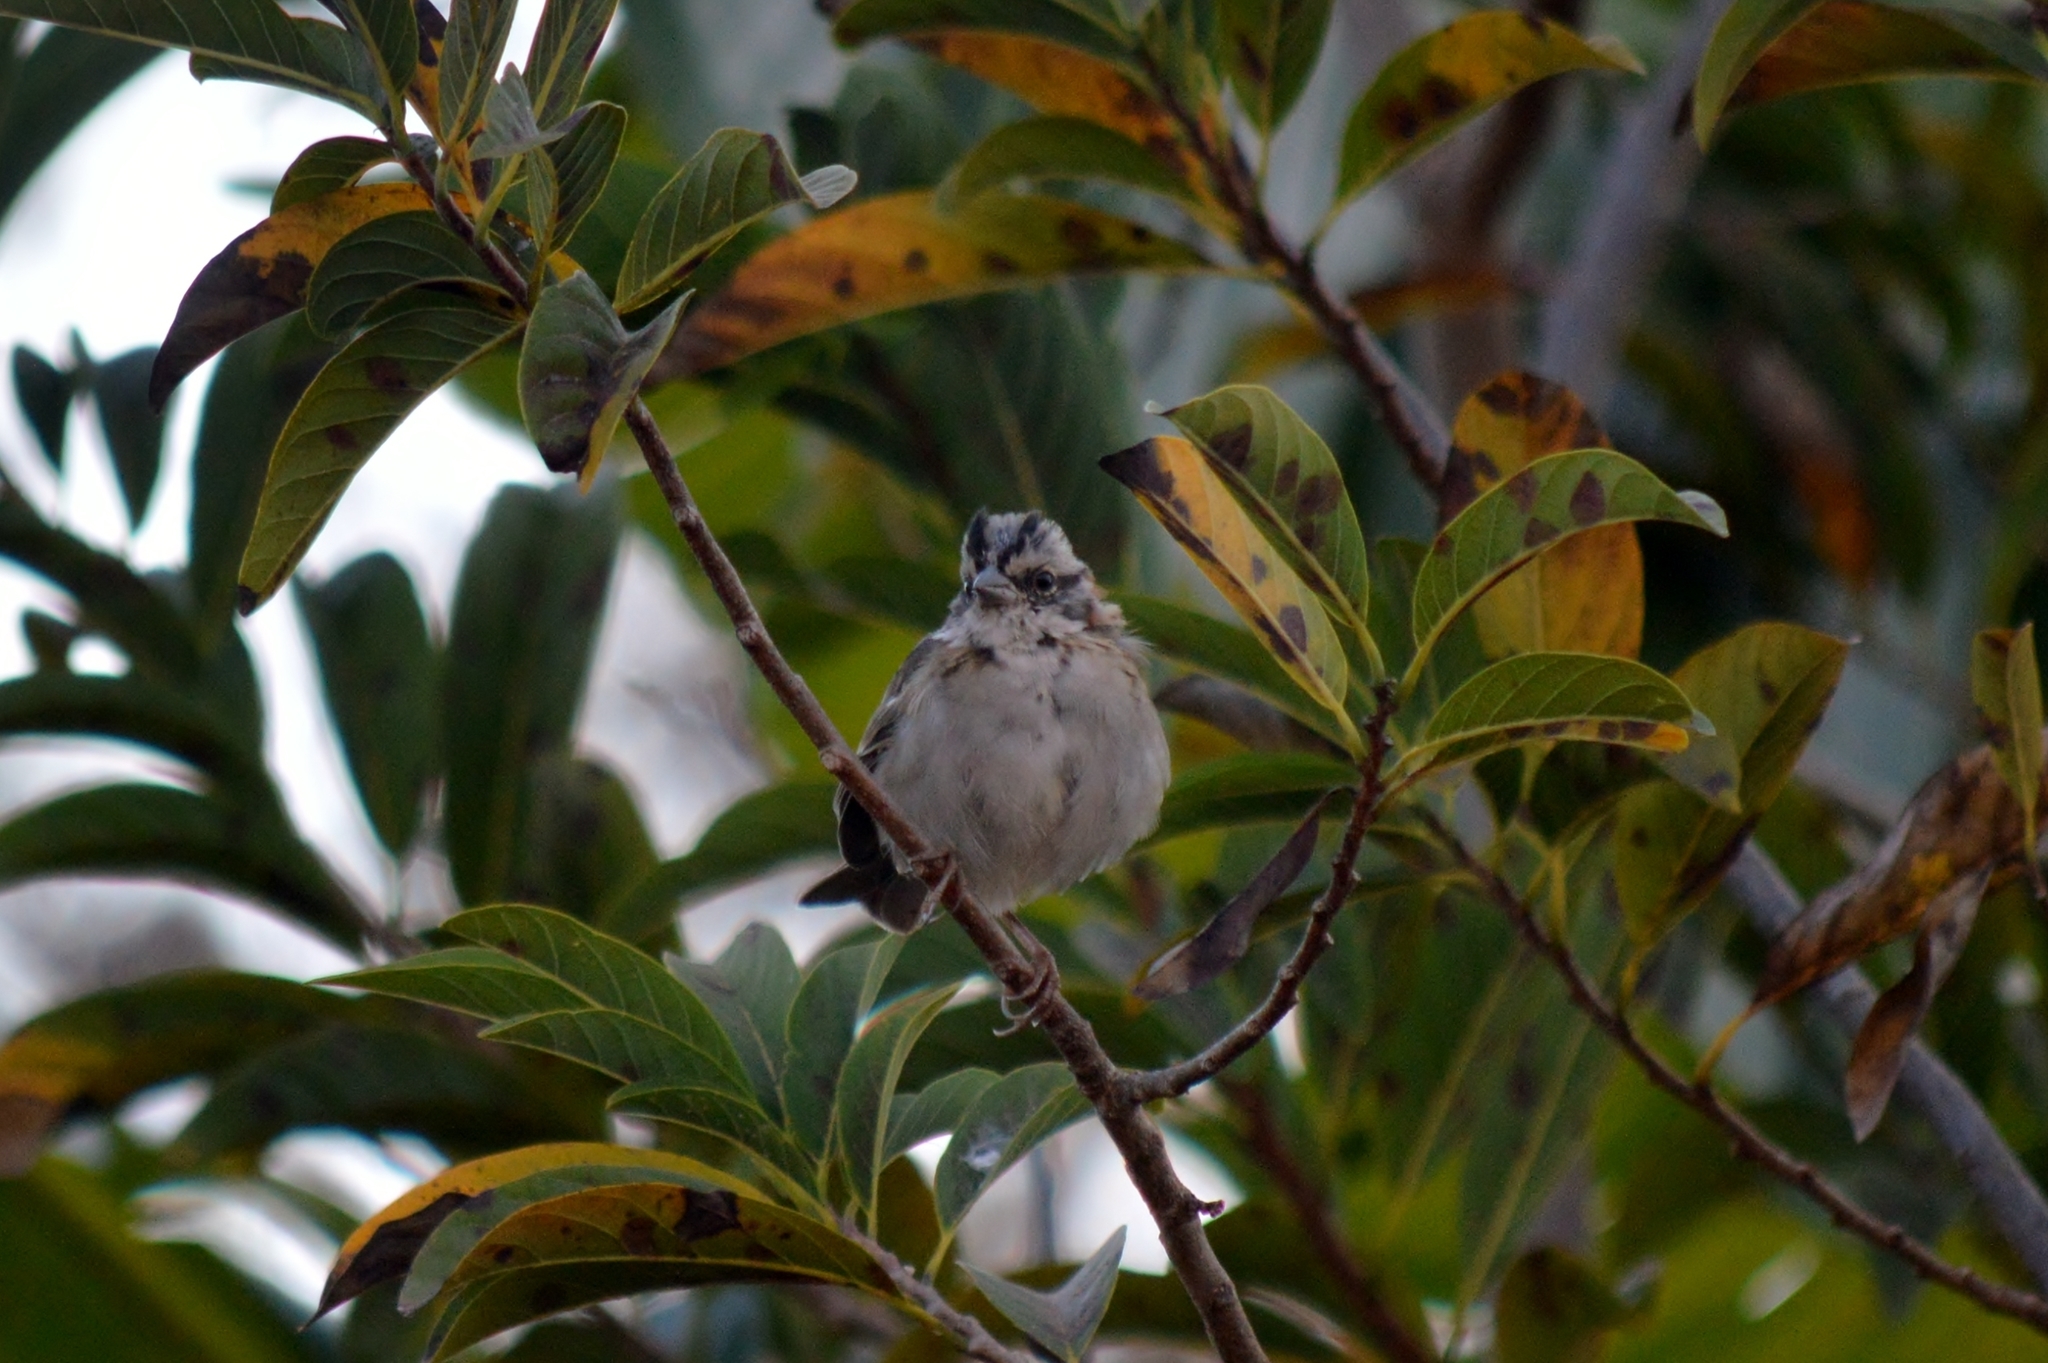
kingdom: Animalia
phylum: Chordata
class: Aves
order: Passeriformes
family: Passerellidae
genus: Zonotrichia
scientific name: Zonotrichia capensis
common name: Rufous-collared sparrow
